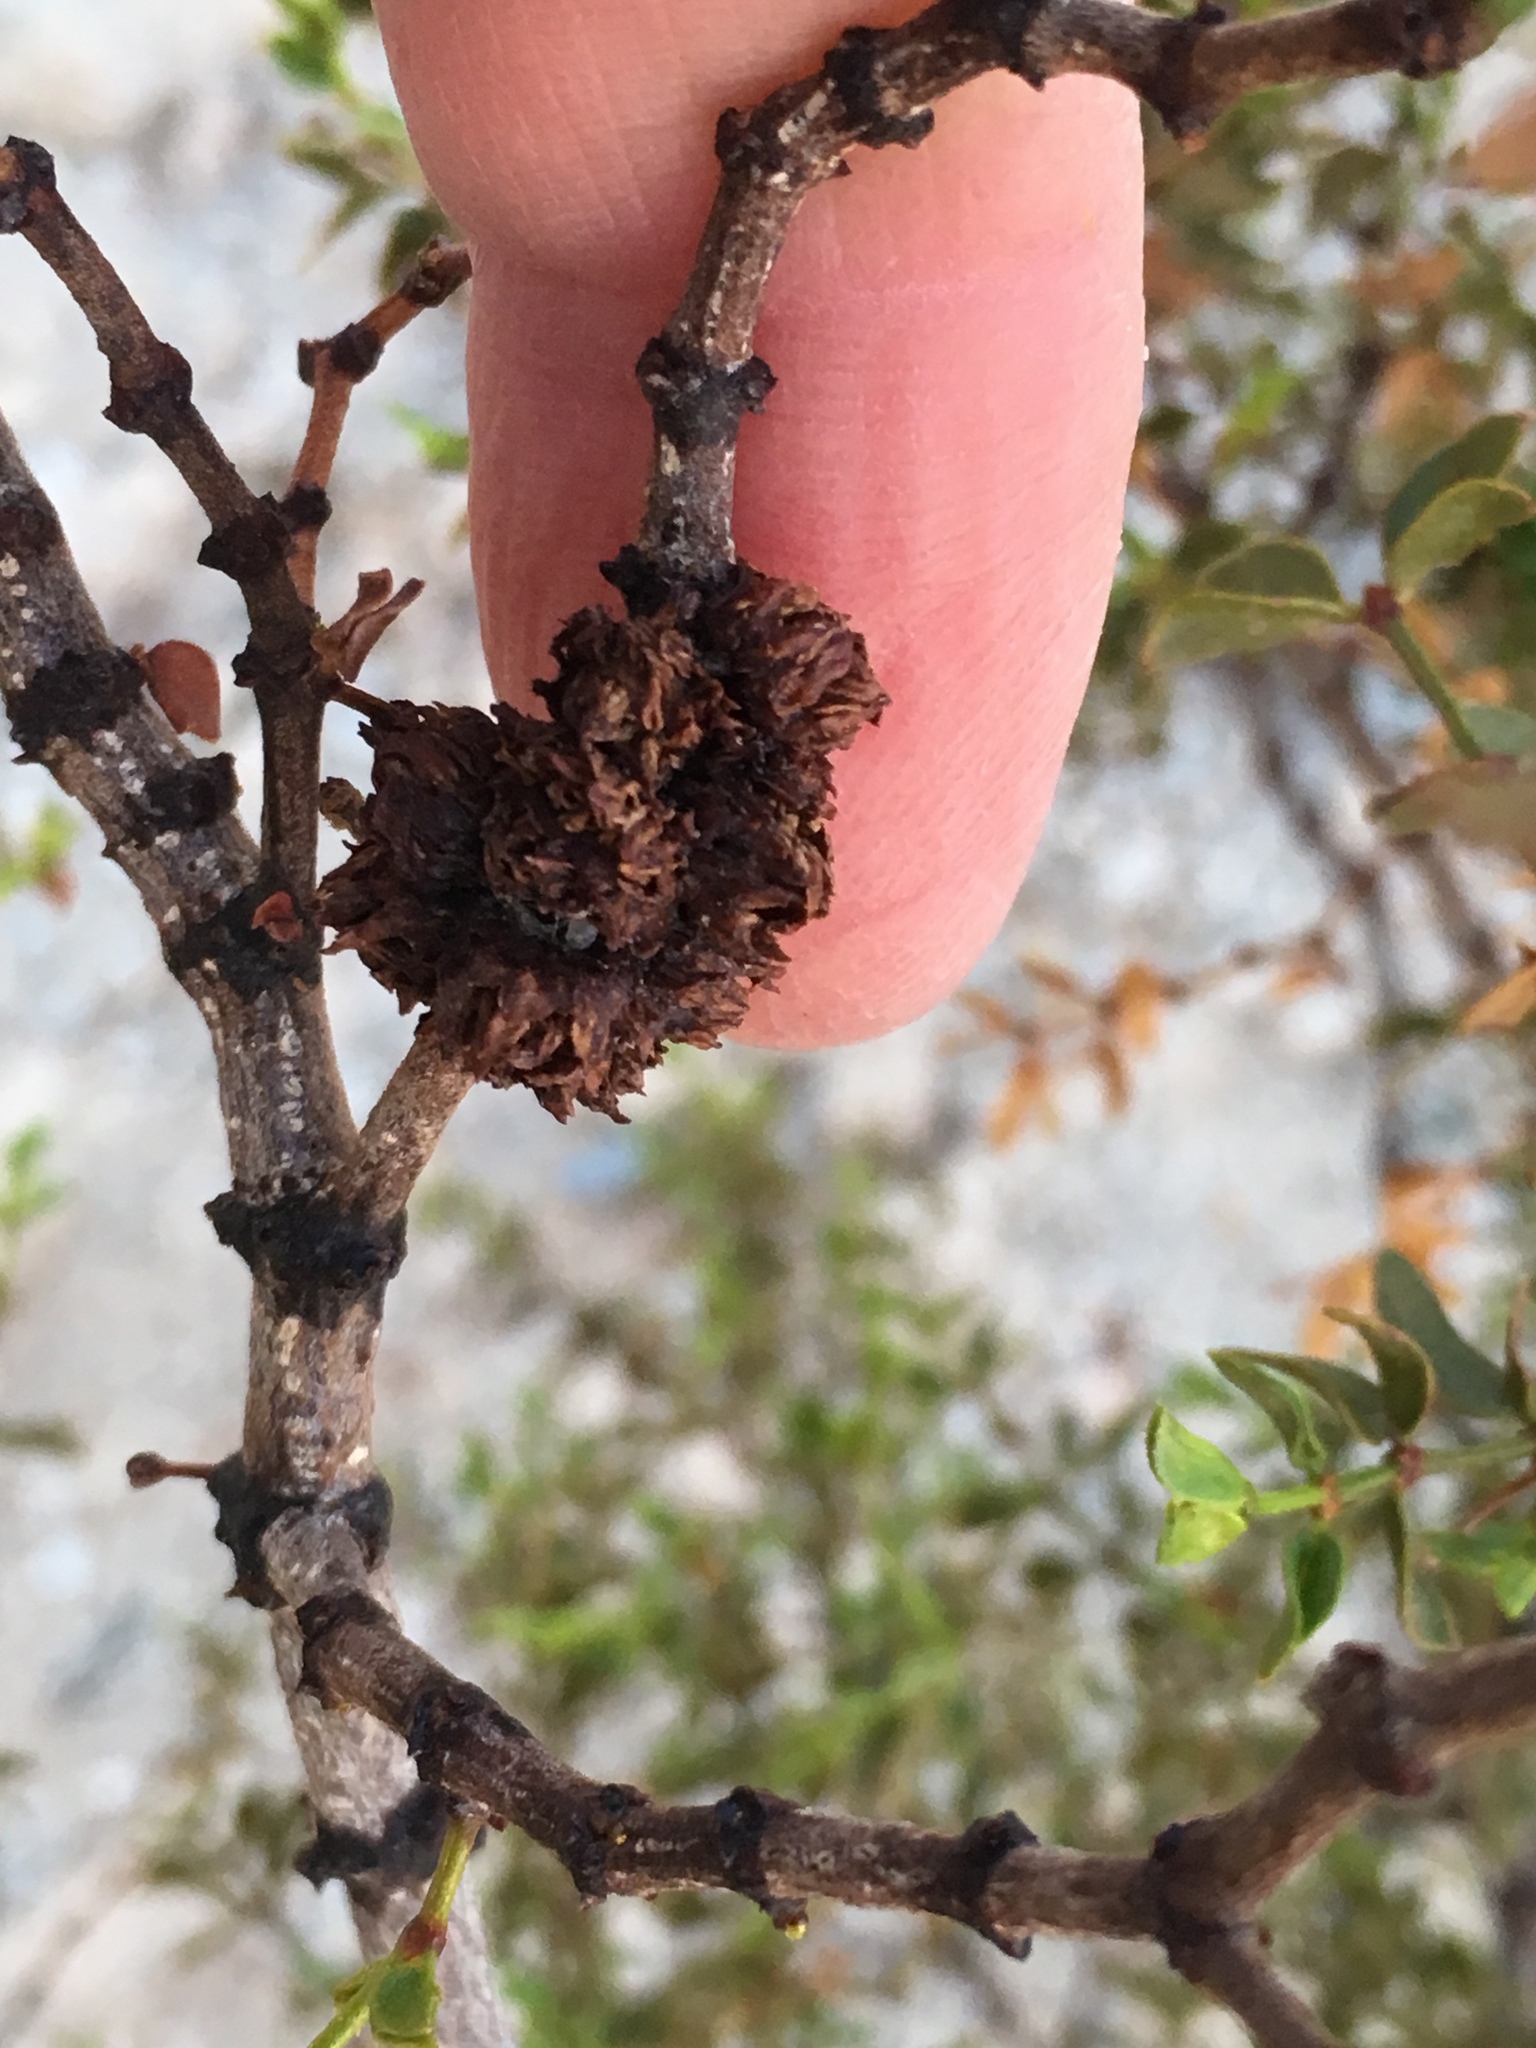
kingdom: Animalia
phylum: Arthropoda
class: Insecta
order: Diptera
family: Cecidomyiidae
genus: Asphondylia
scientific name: Asphondylia auripila
